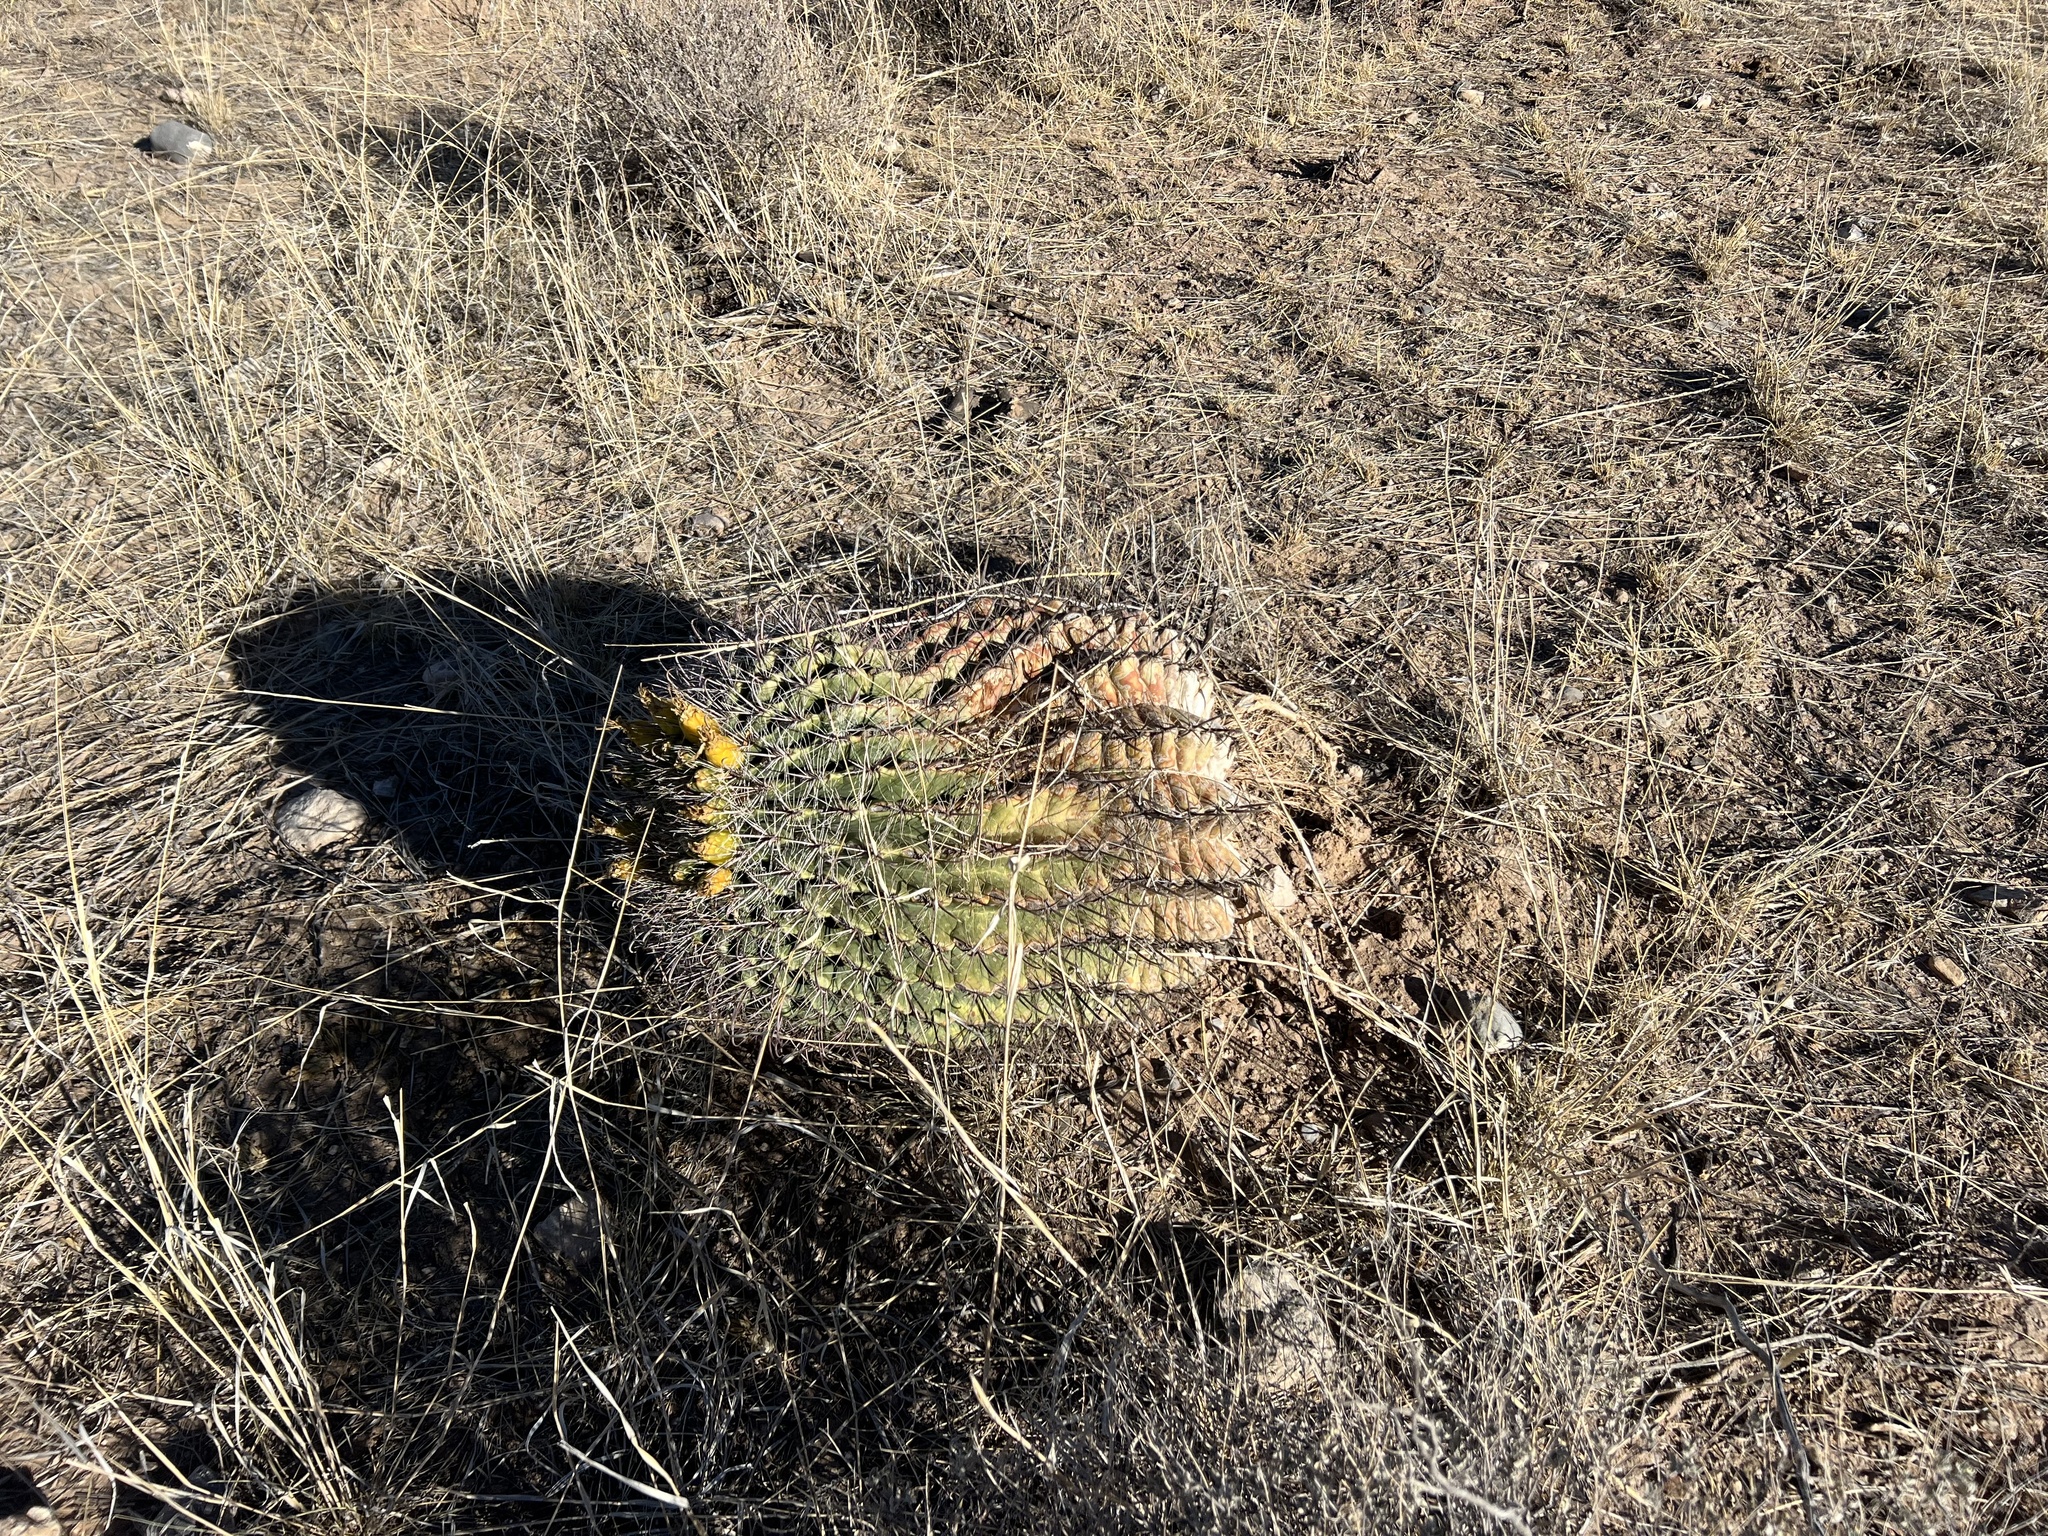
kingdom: Plantae
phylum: Tracheophyta
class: Magnoliopsida
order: Caryophyllales
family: Cactaceae
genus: Ferocactus
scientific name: Ferocactus wislizeni
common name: Candy barrel cactus
